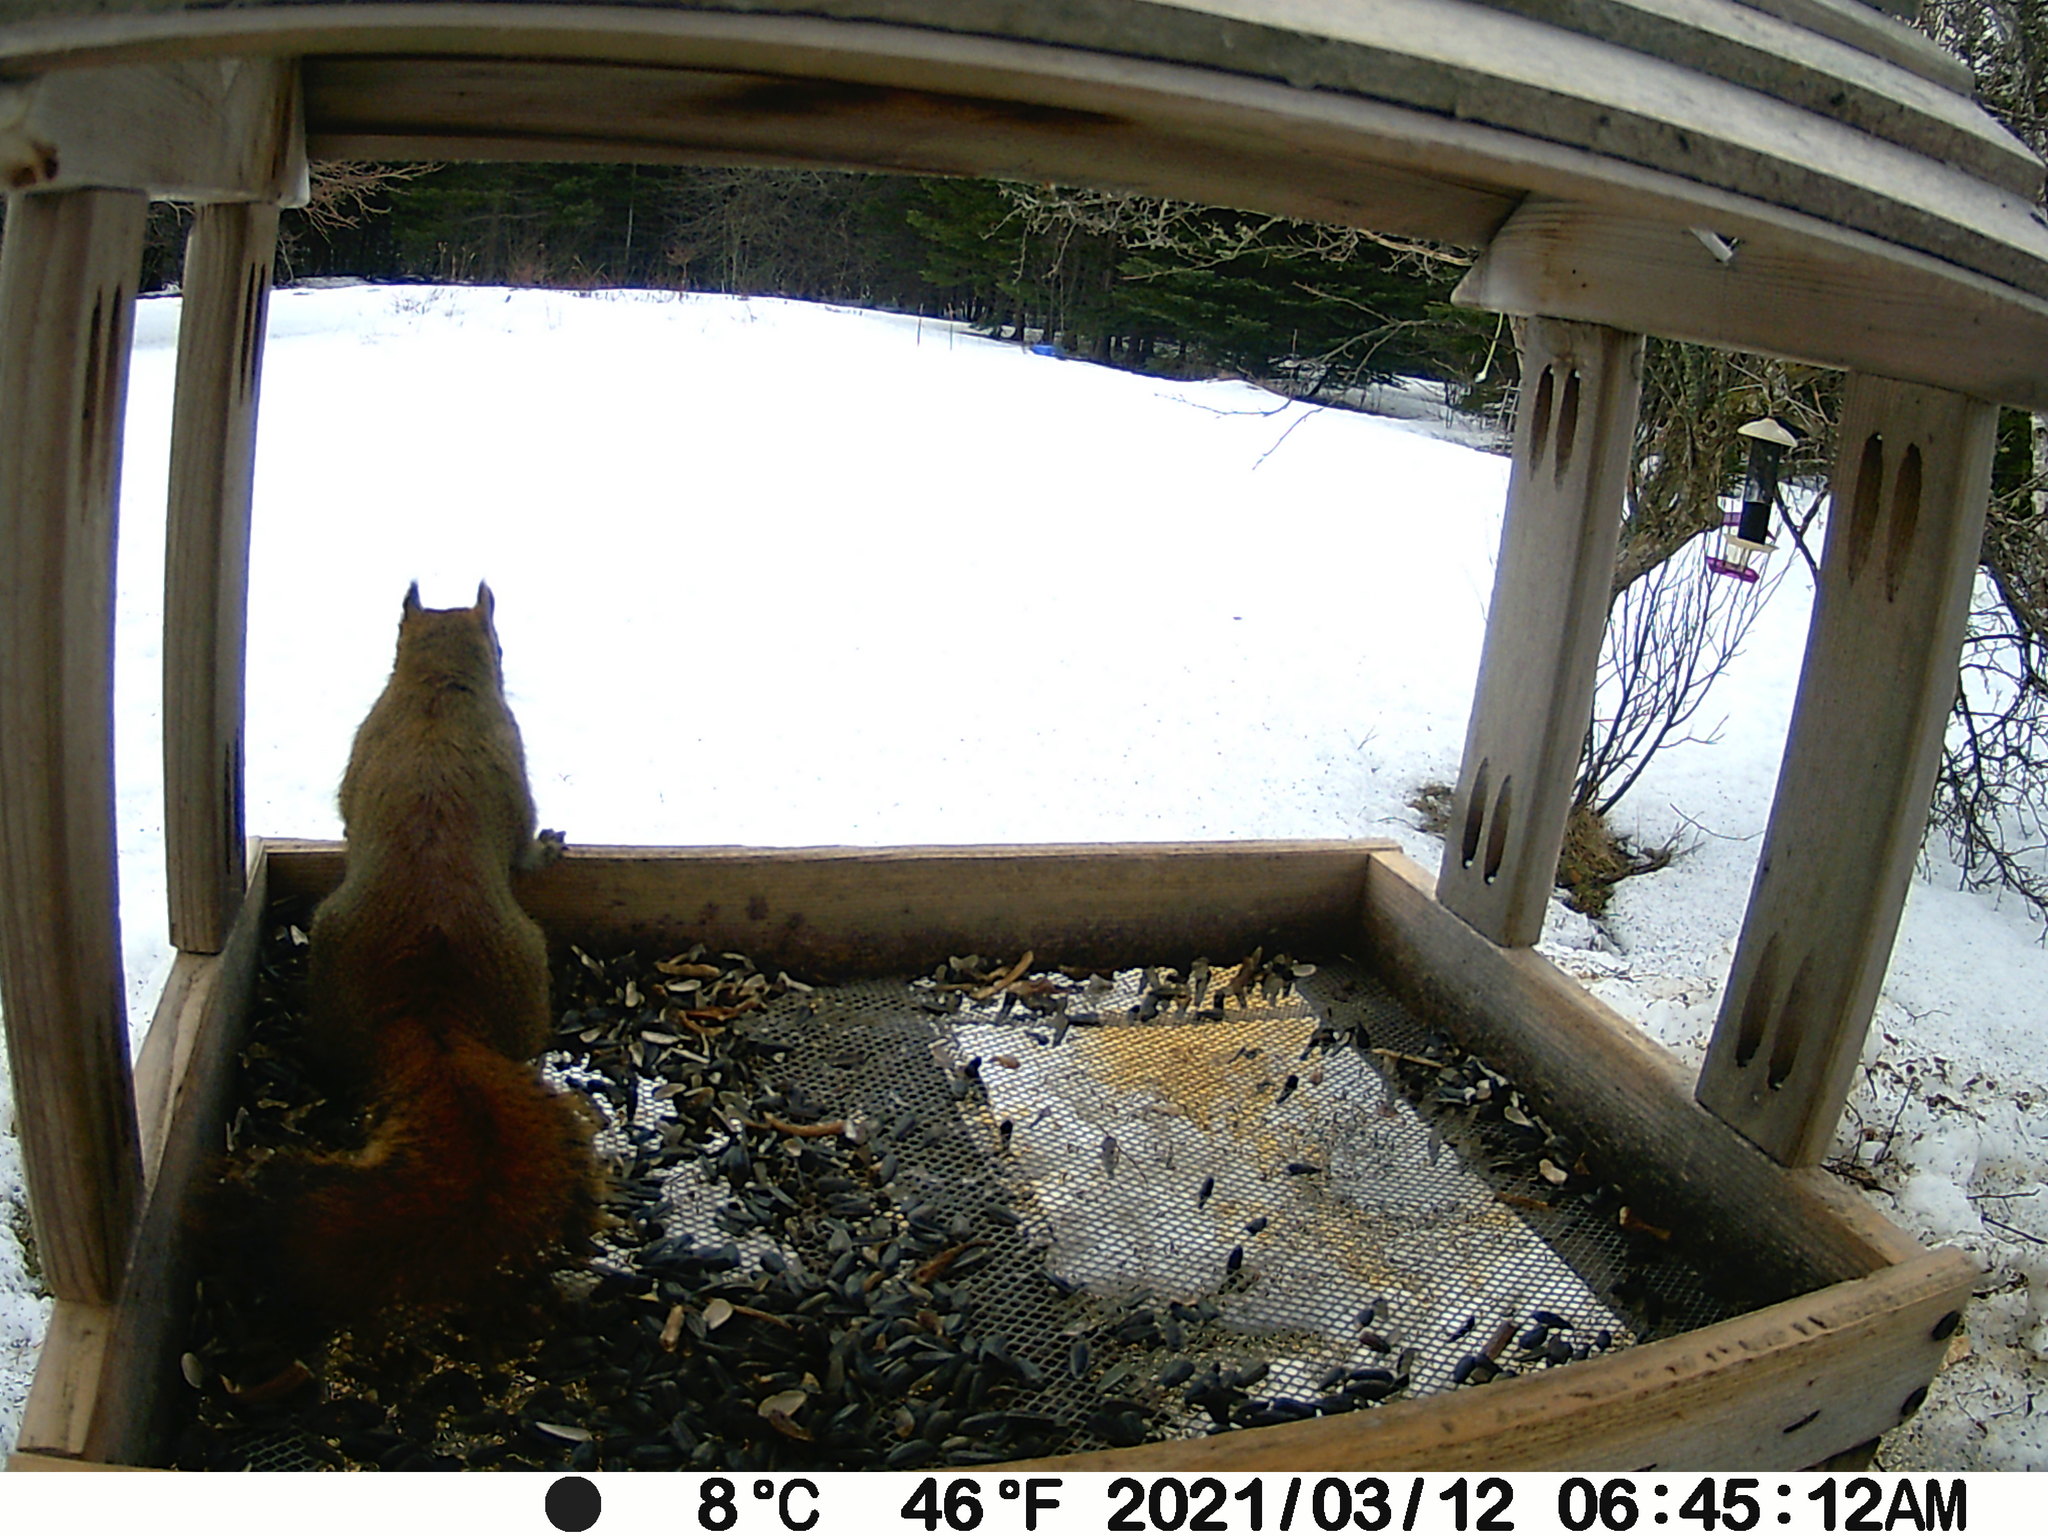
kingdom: Animalia
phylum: Chordata
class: Mammalia
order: Rodentia
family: Sciuridae
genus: Tamiasciurus
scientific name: Tamiasciurus hudsonicus
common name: Red squirrel
